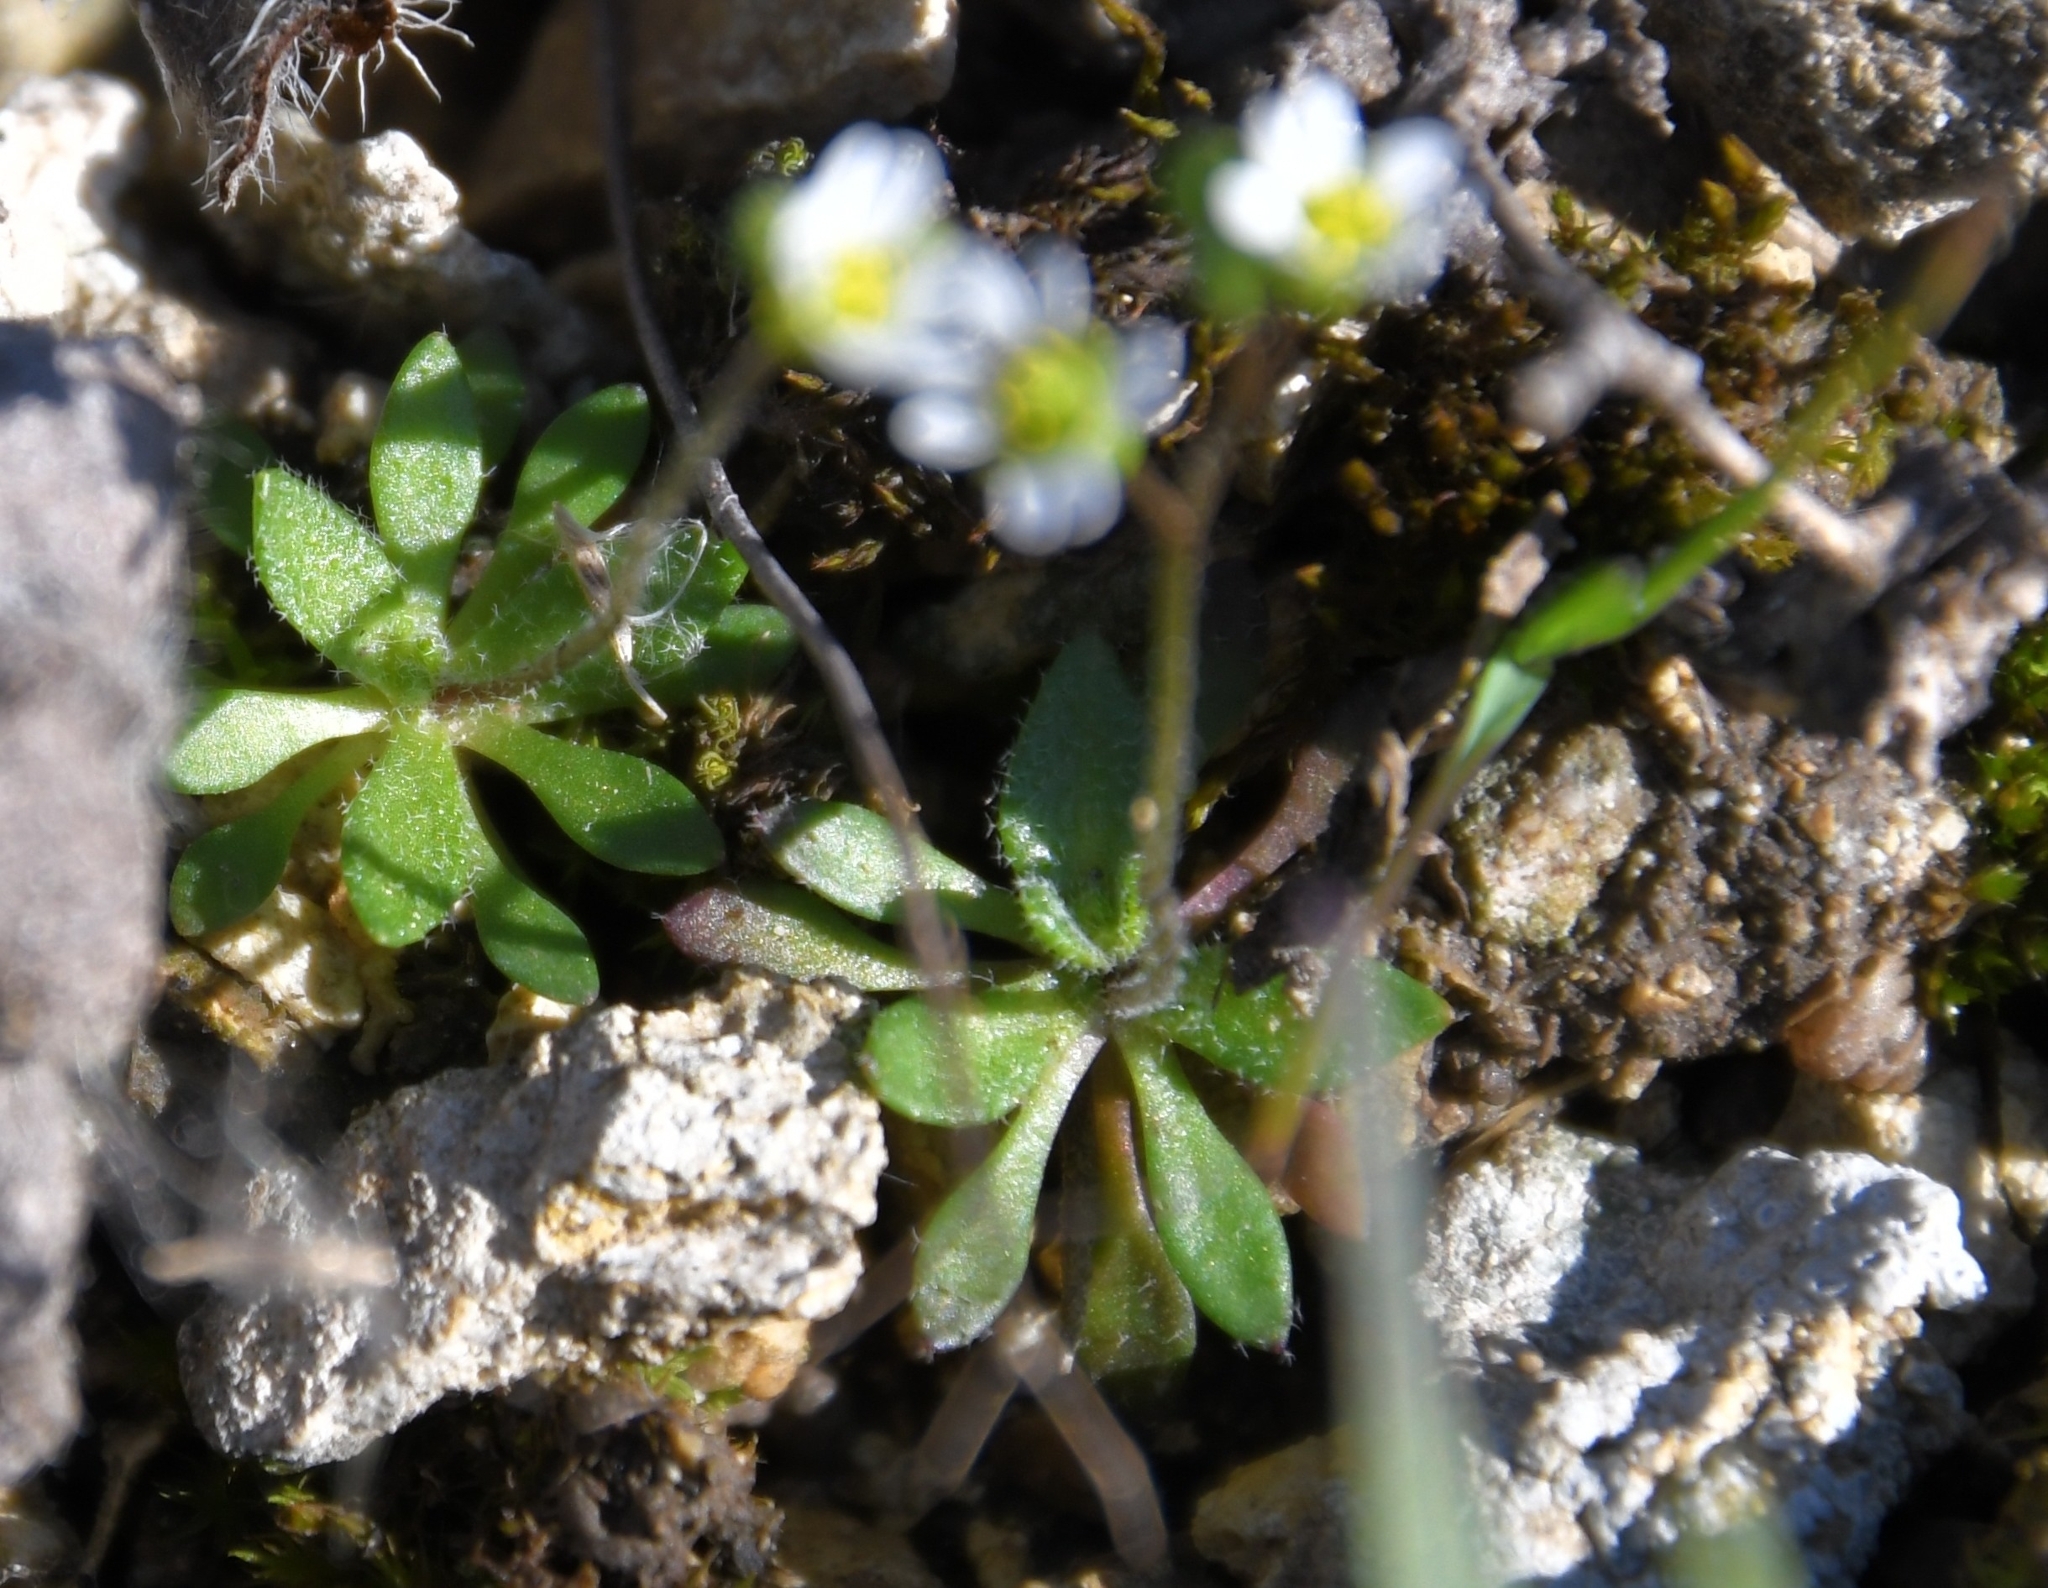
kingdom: Plantae
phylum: Tracheophyta
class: Magnoliopsida
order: Brassicales
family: Brassicaceae
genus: Draba
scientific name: Draba verna
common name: Spring draba
